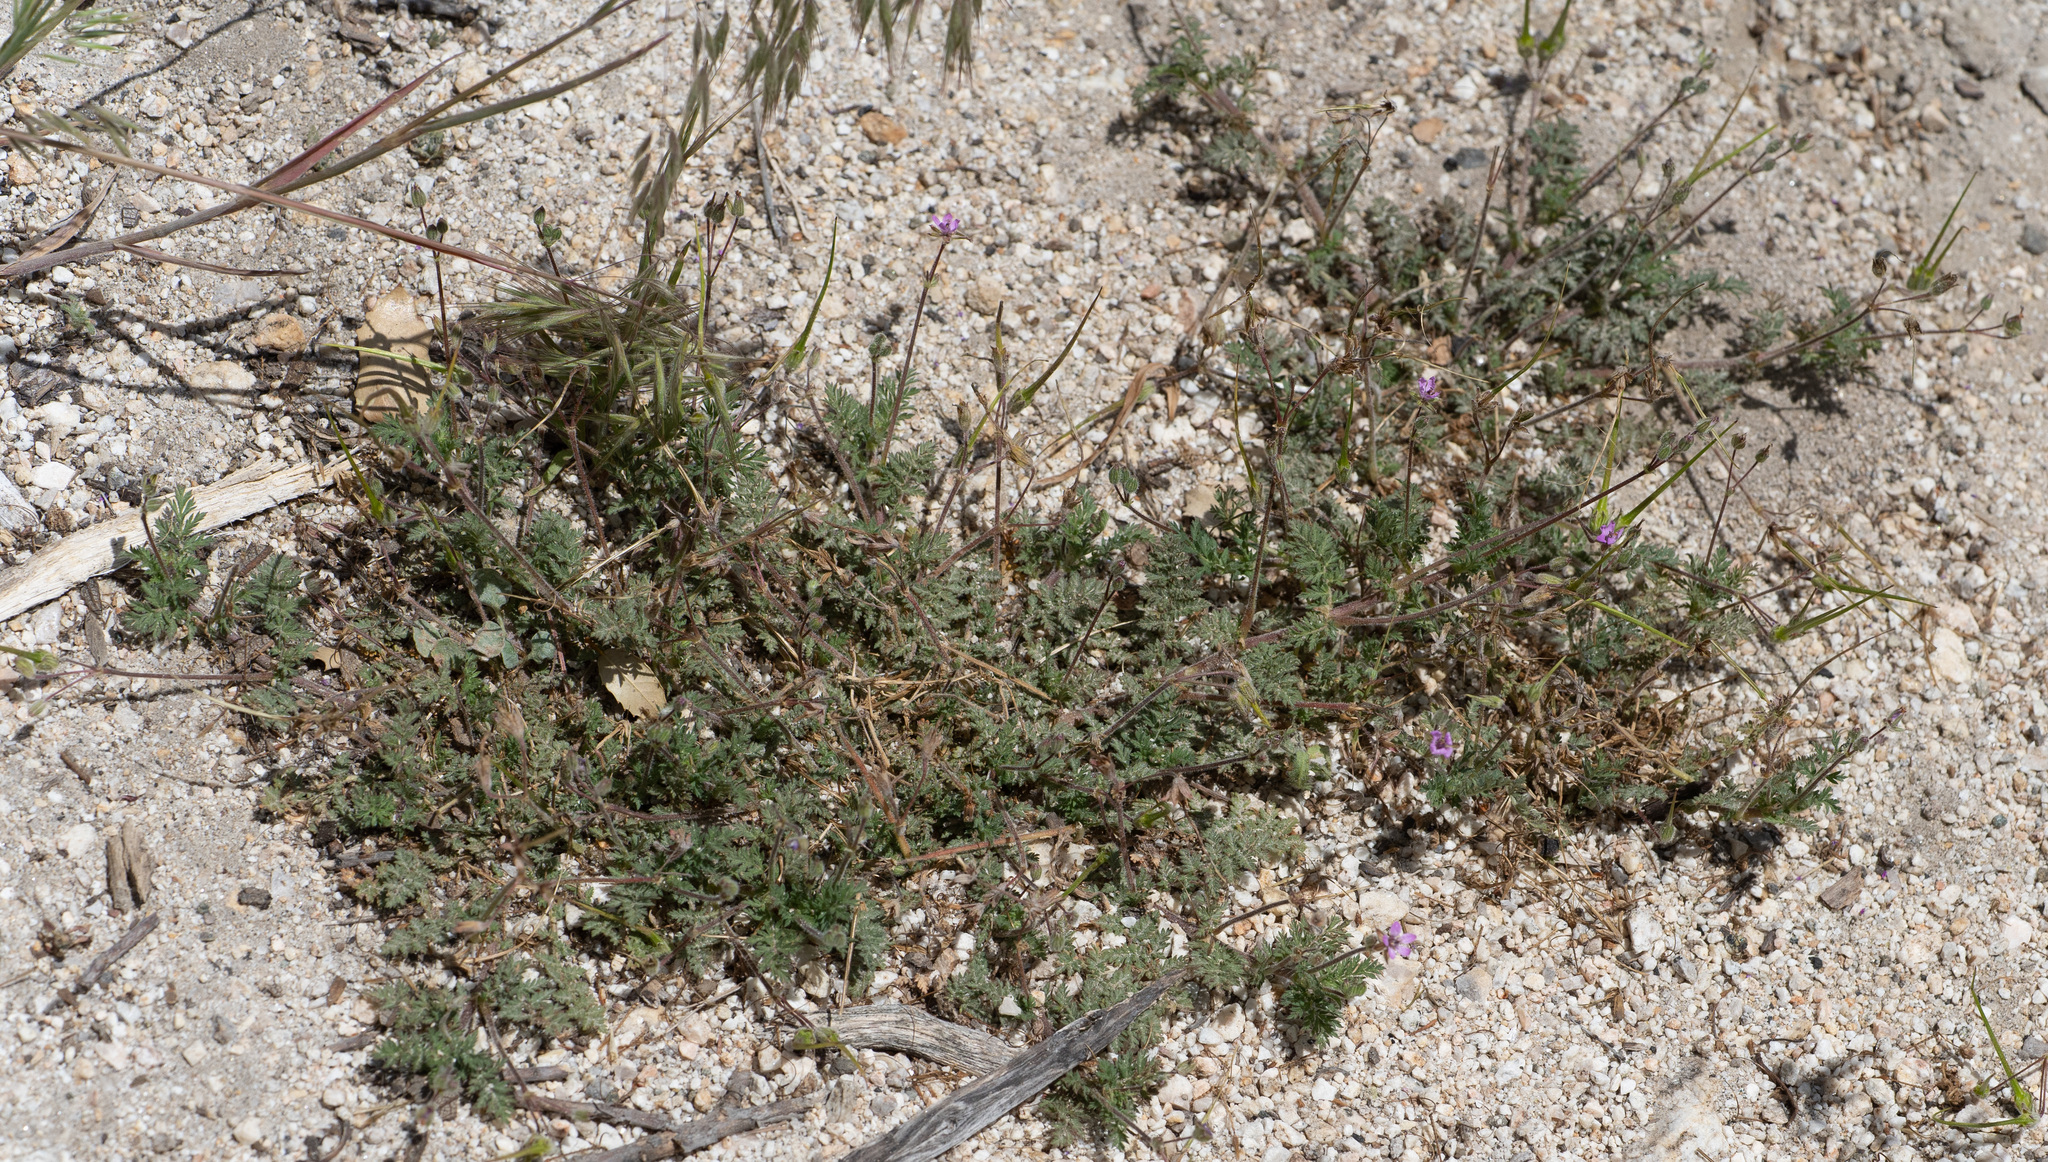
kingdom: Plantae
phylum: Tracheophyta
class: Magnoliopsida
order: Geraniales
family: Geraniaceae
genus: Erodium
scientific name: Erodium cicutarium
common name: Common stork's-bill
